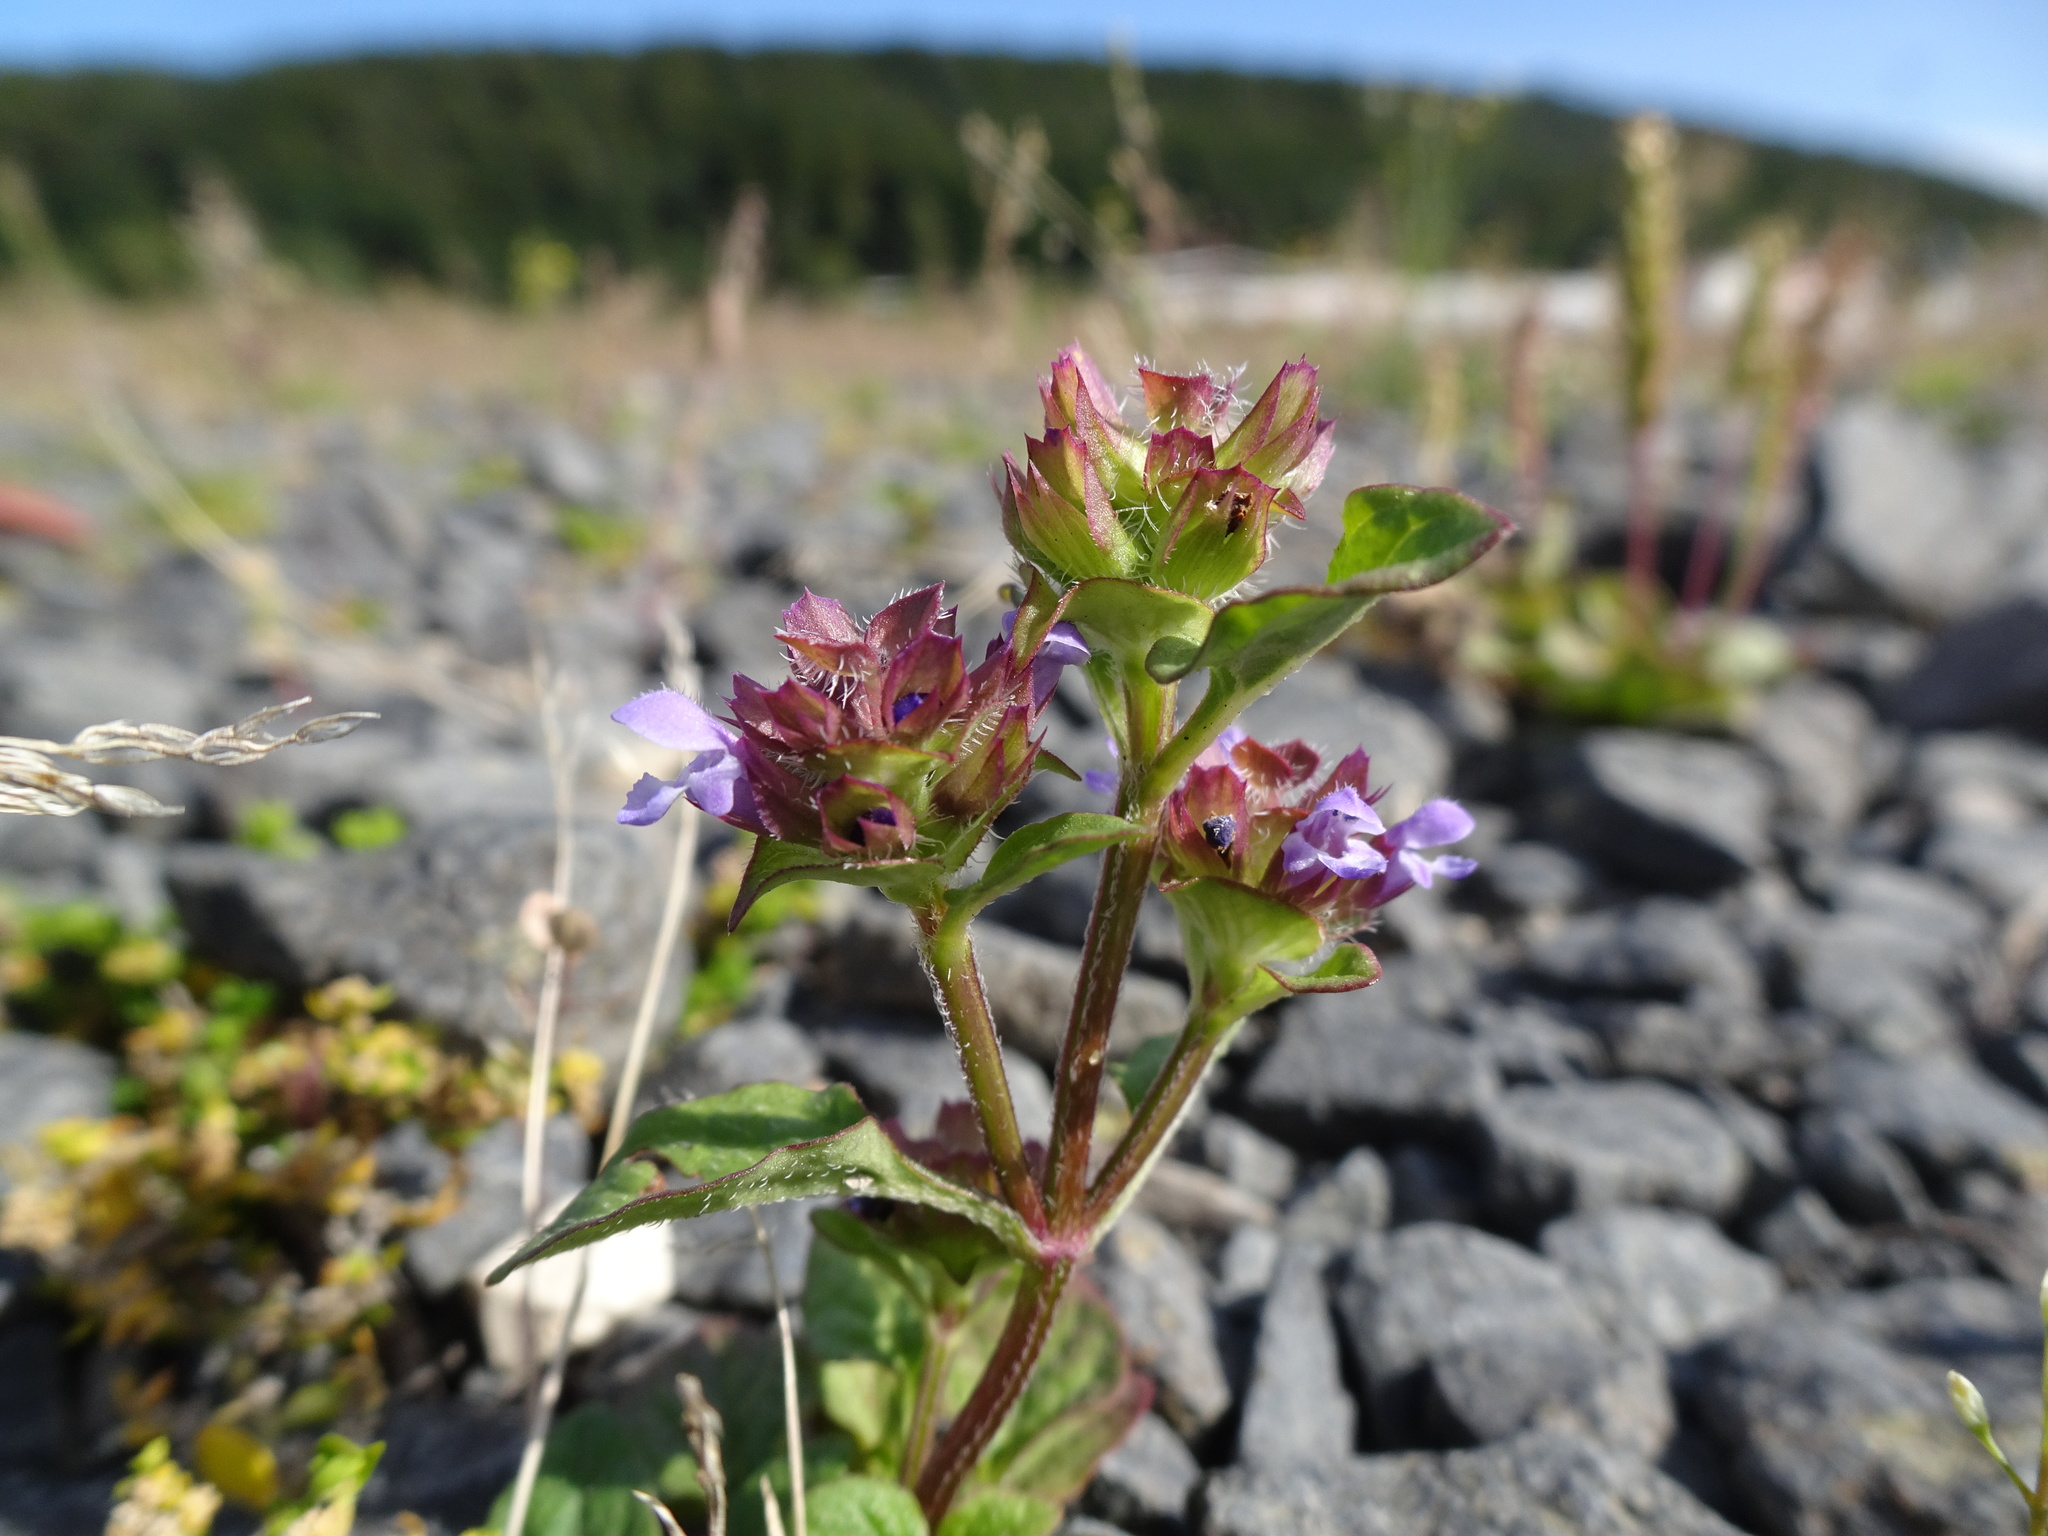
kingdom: Plantae
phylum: Tracheophyta
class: Magnoliopsida
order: Lamiales
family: Lamiaceae
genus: Prunella
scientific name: Prunella vulgaris
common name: Heal-all
